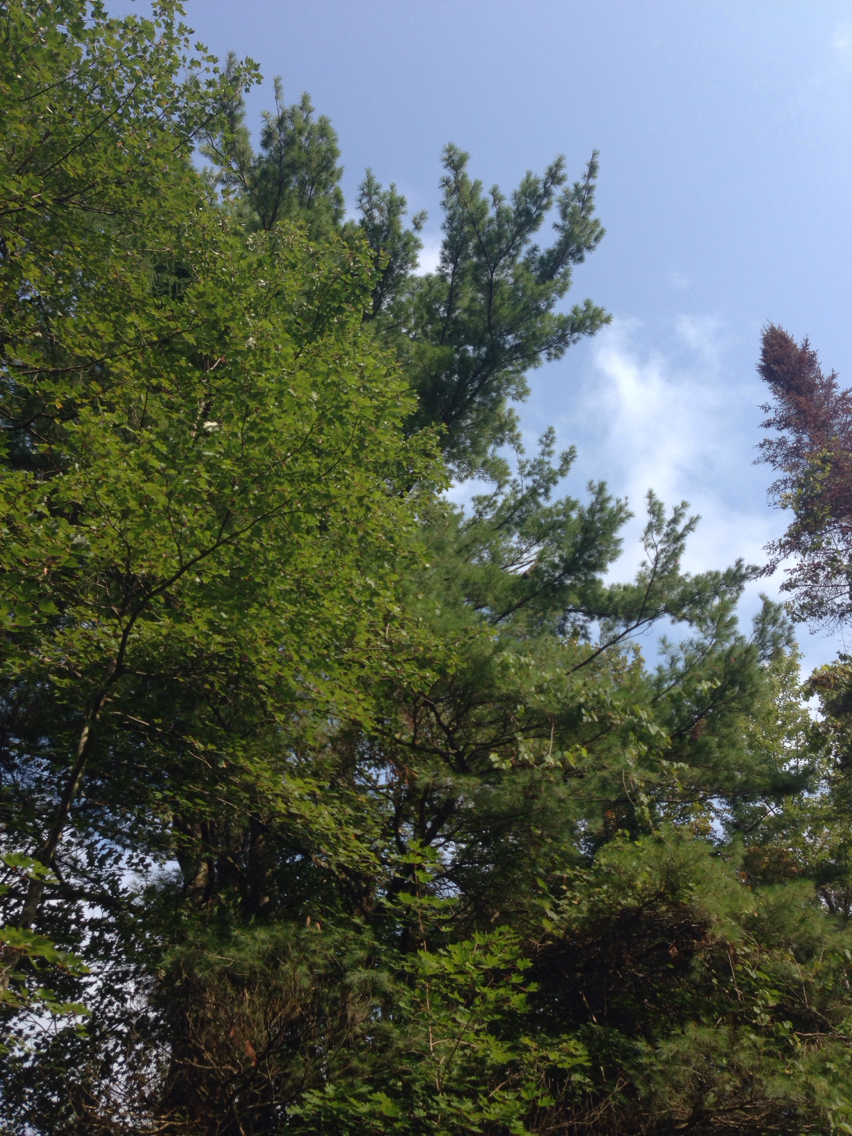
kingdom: Plantae
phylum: Tracheophyta
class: Pinopsida
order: Pinales
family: Pinaceae
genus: Pinus
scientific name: Pinus strobus
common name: Weymouth pine
